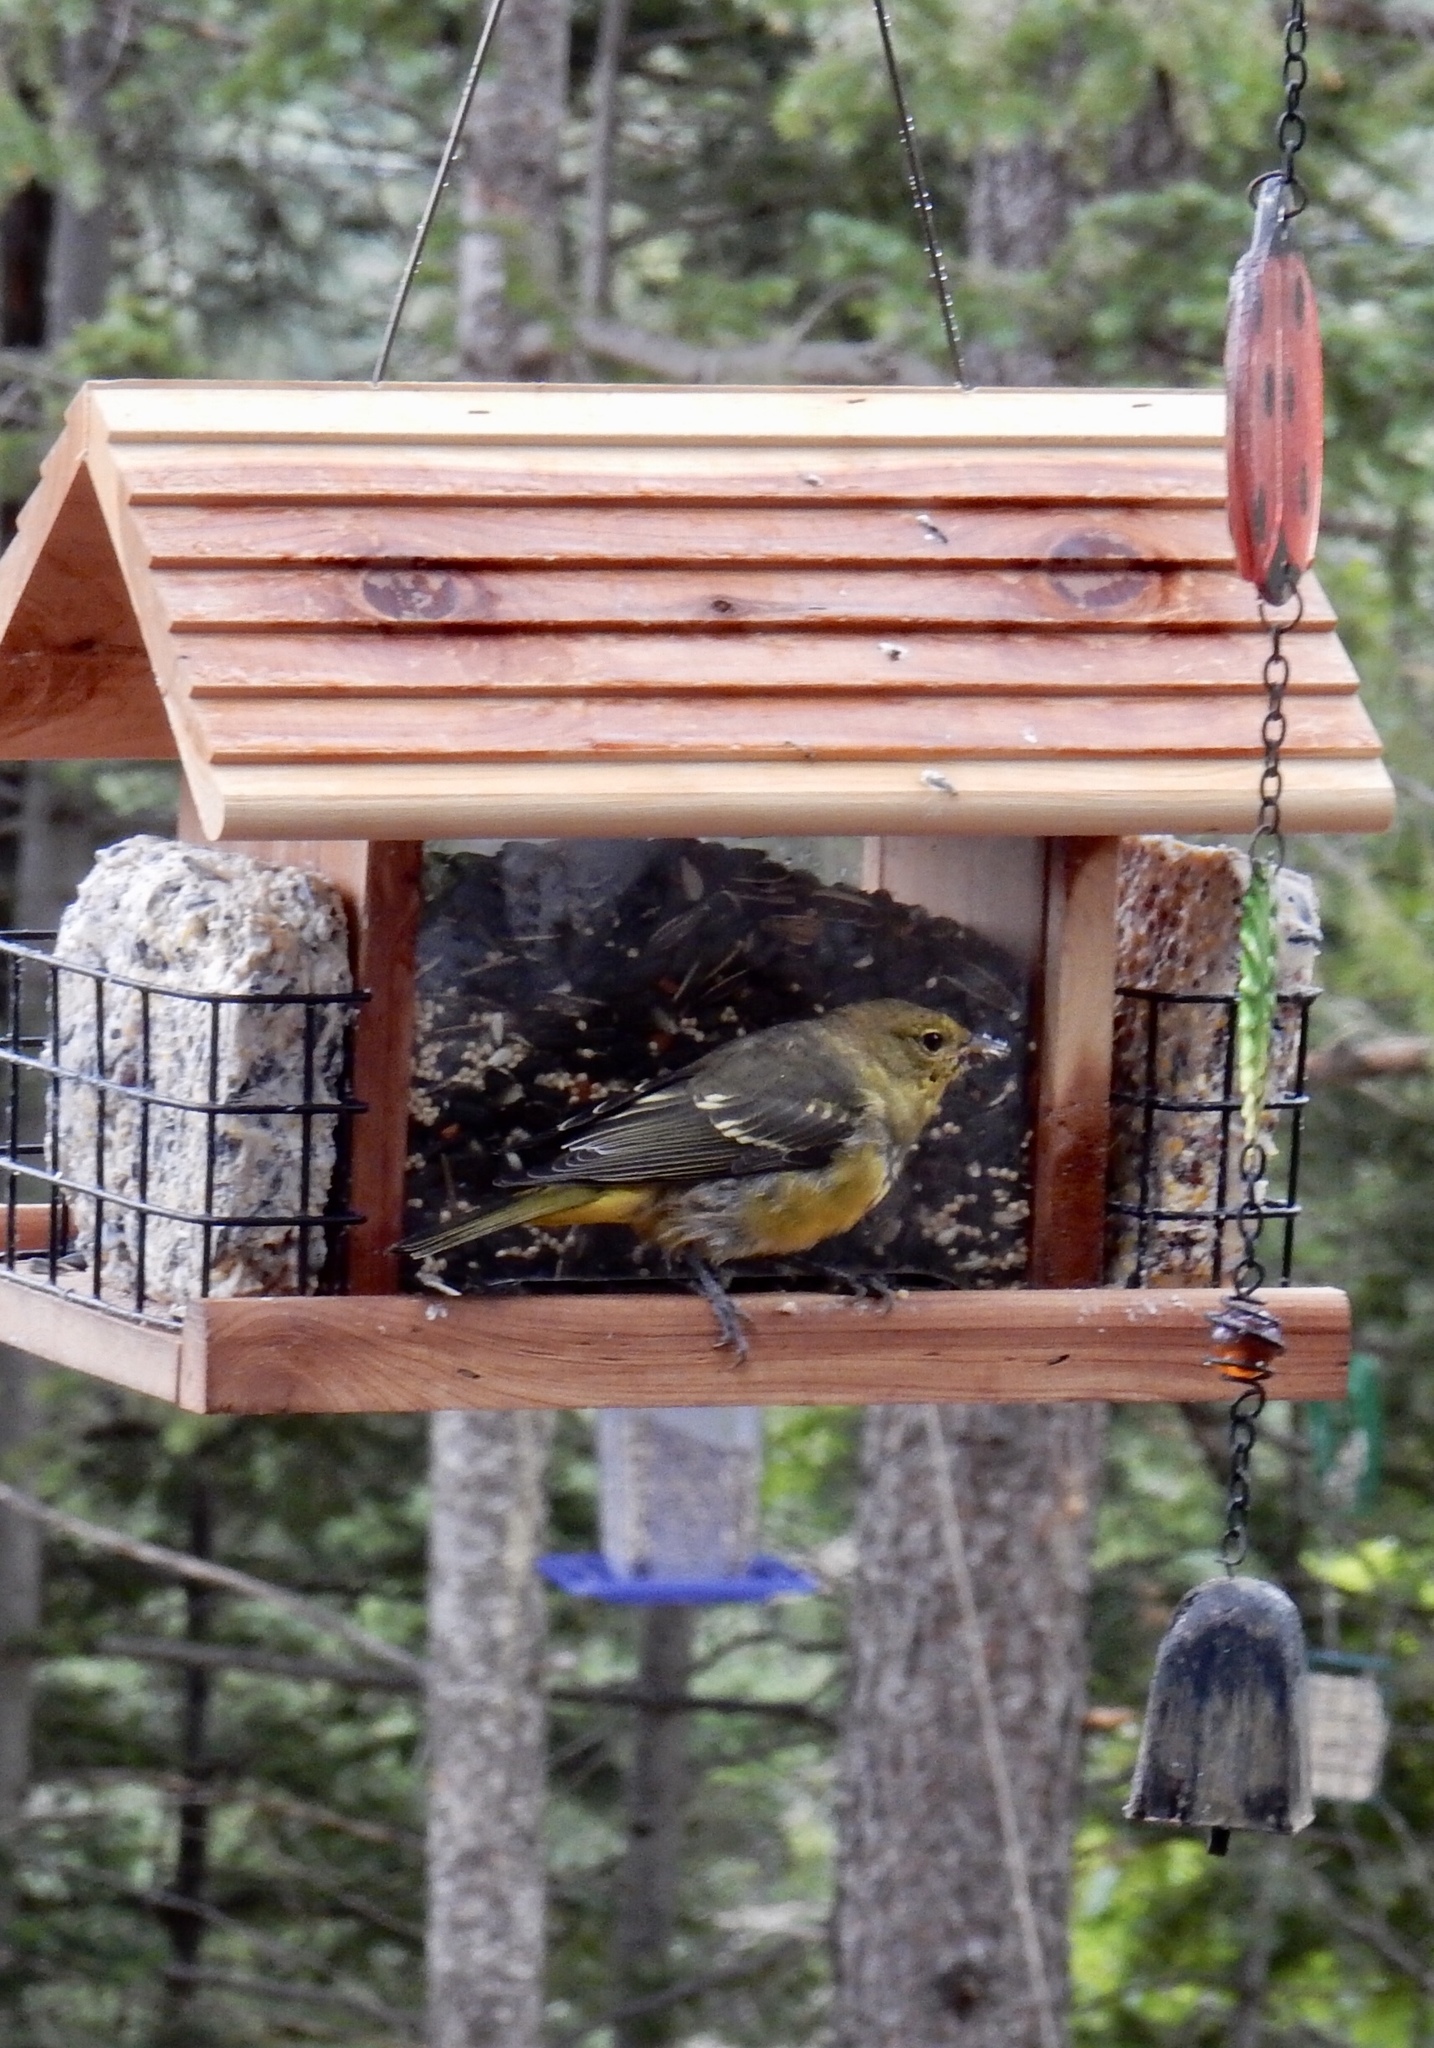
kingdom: Animalia
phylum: Chordata
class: Aves
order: Passeriformes
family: Cardinalidae
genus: Piranga
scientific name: Piranga ludoviciana
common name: Western tanager
